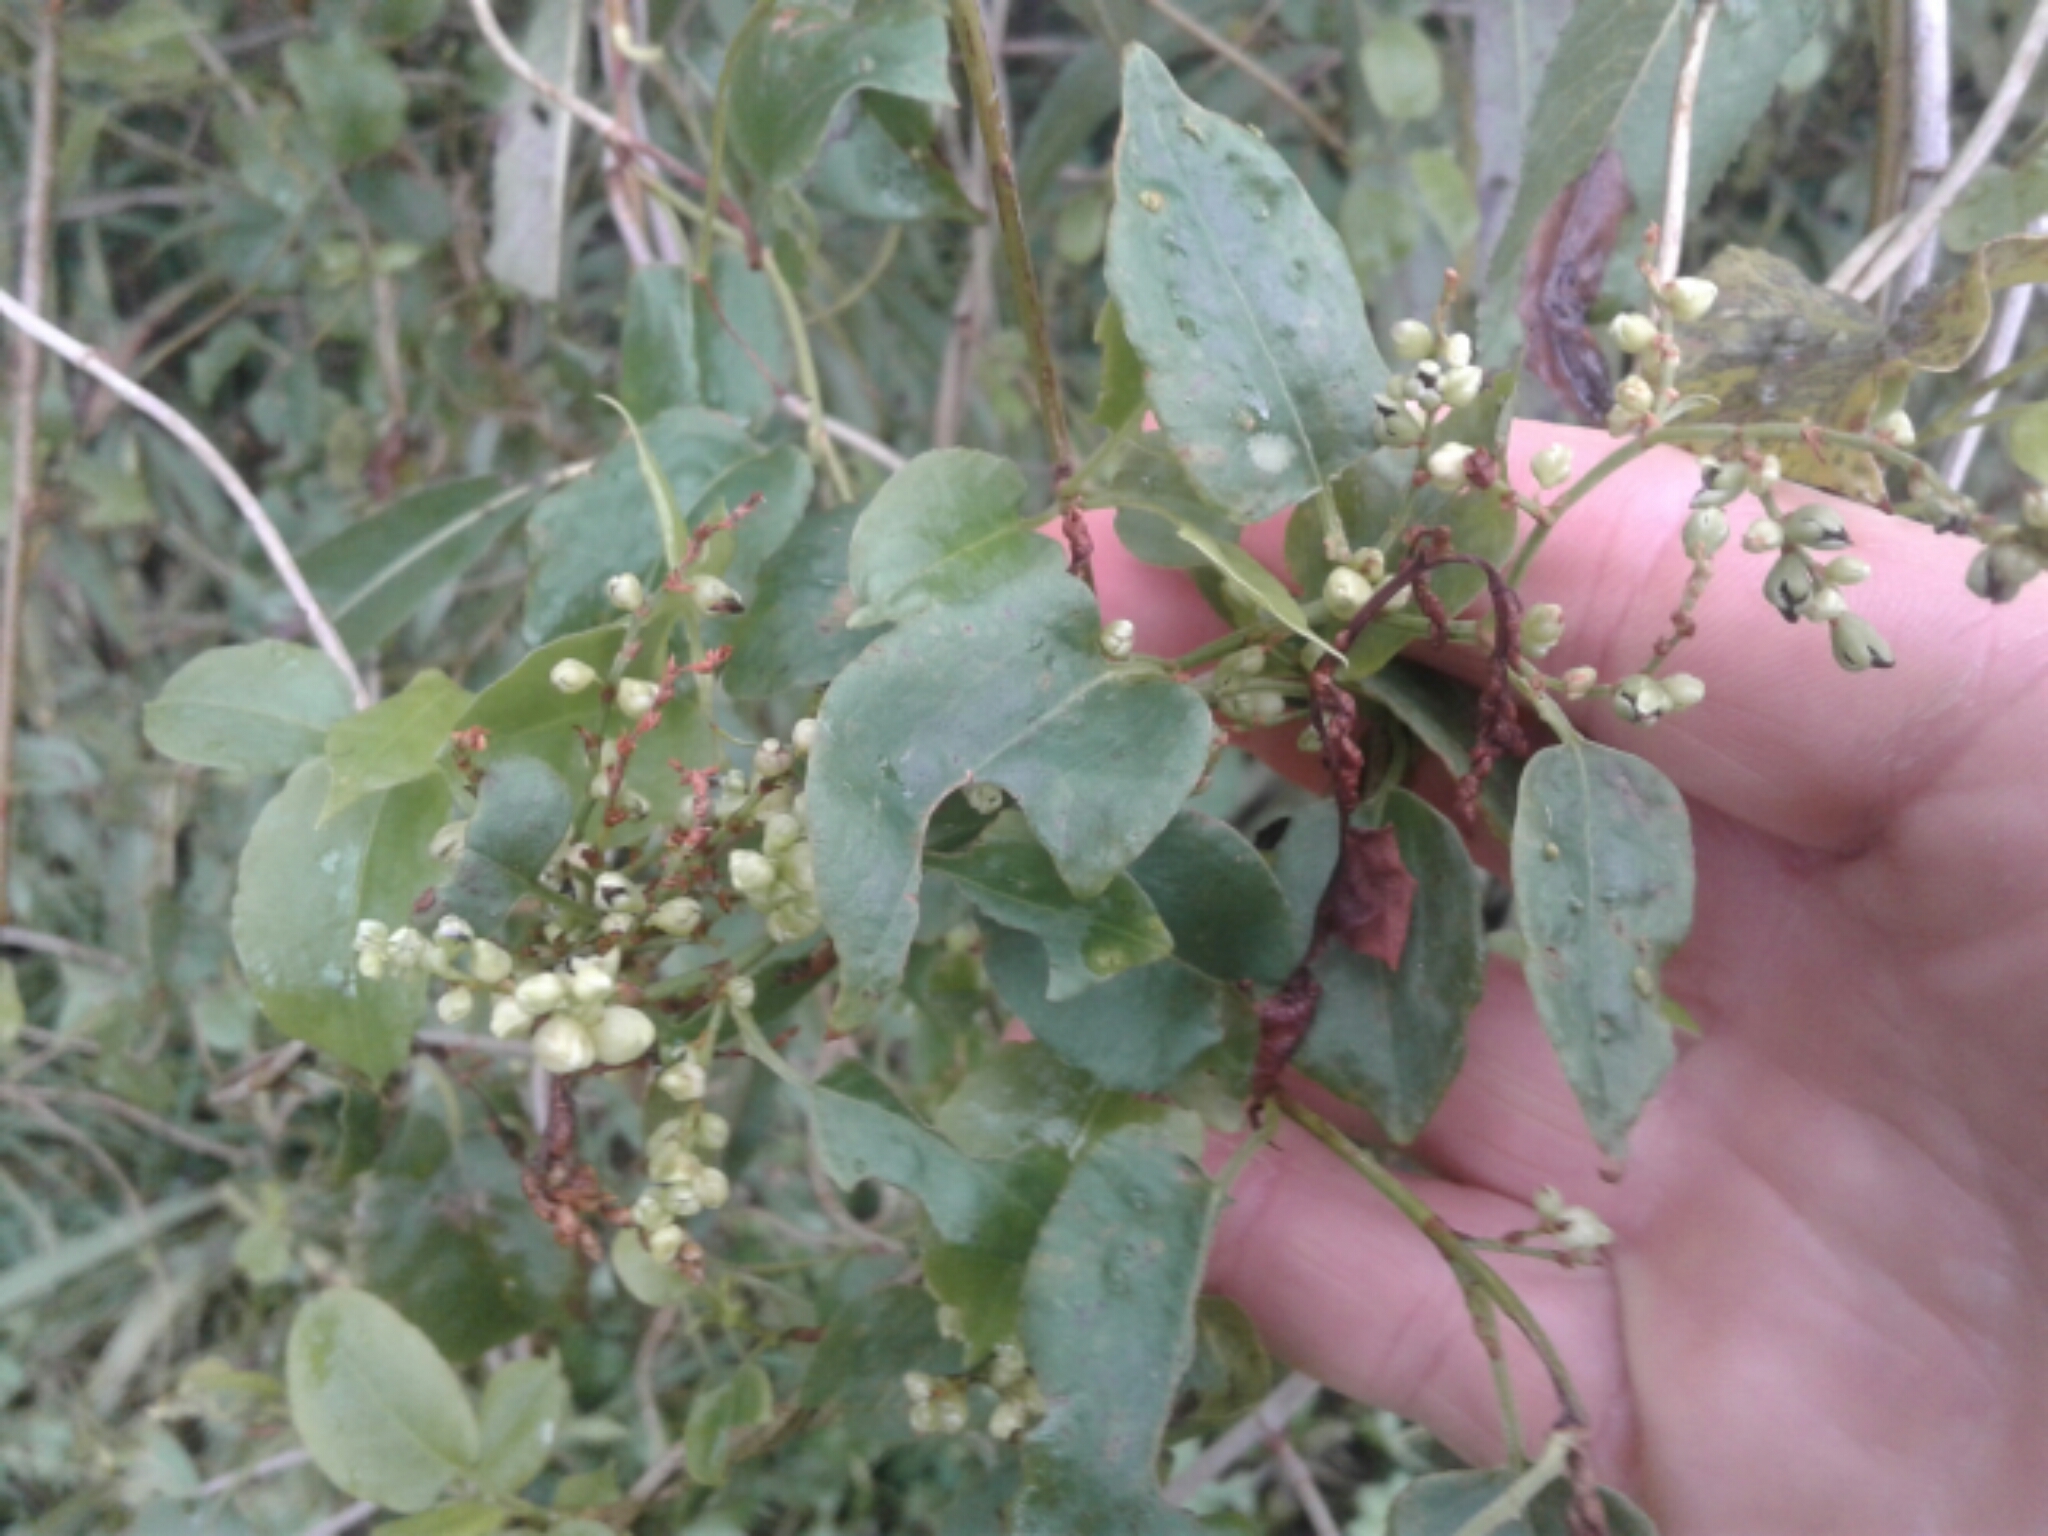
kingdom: Plantae
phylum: Tracheophyta
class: Magnoliopsida
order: Caryophyllales
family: Polygonaceae
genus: Muehlenbeckia
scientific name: Muehlenbeckia australis
